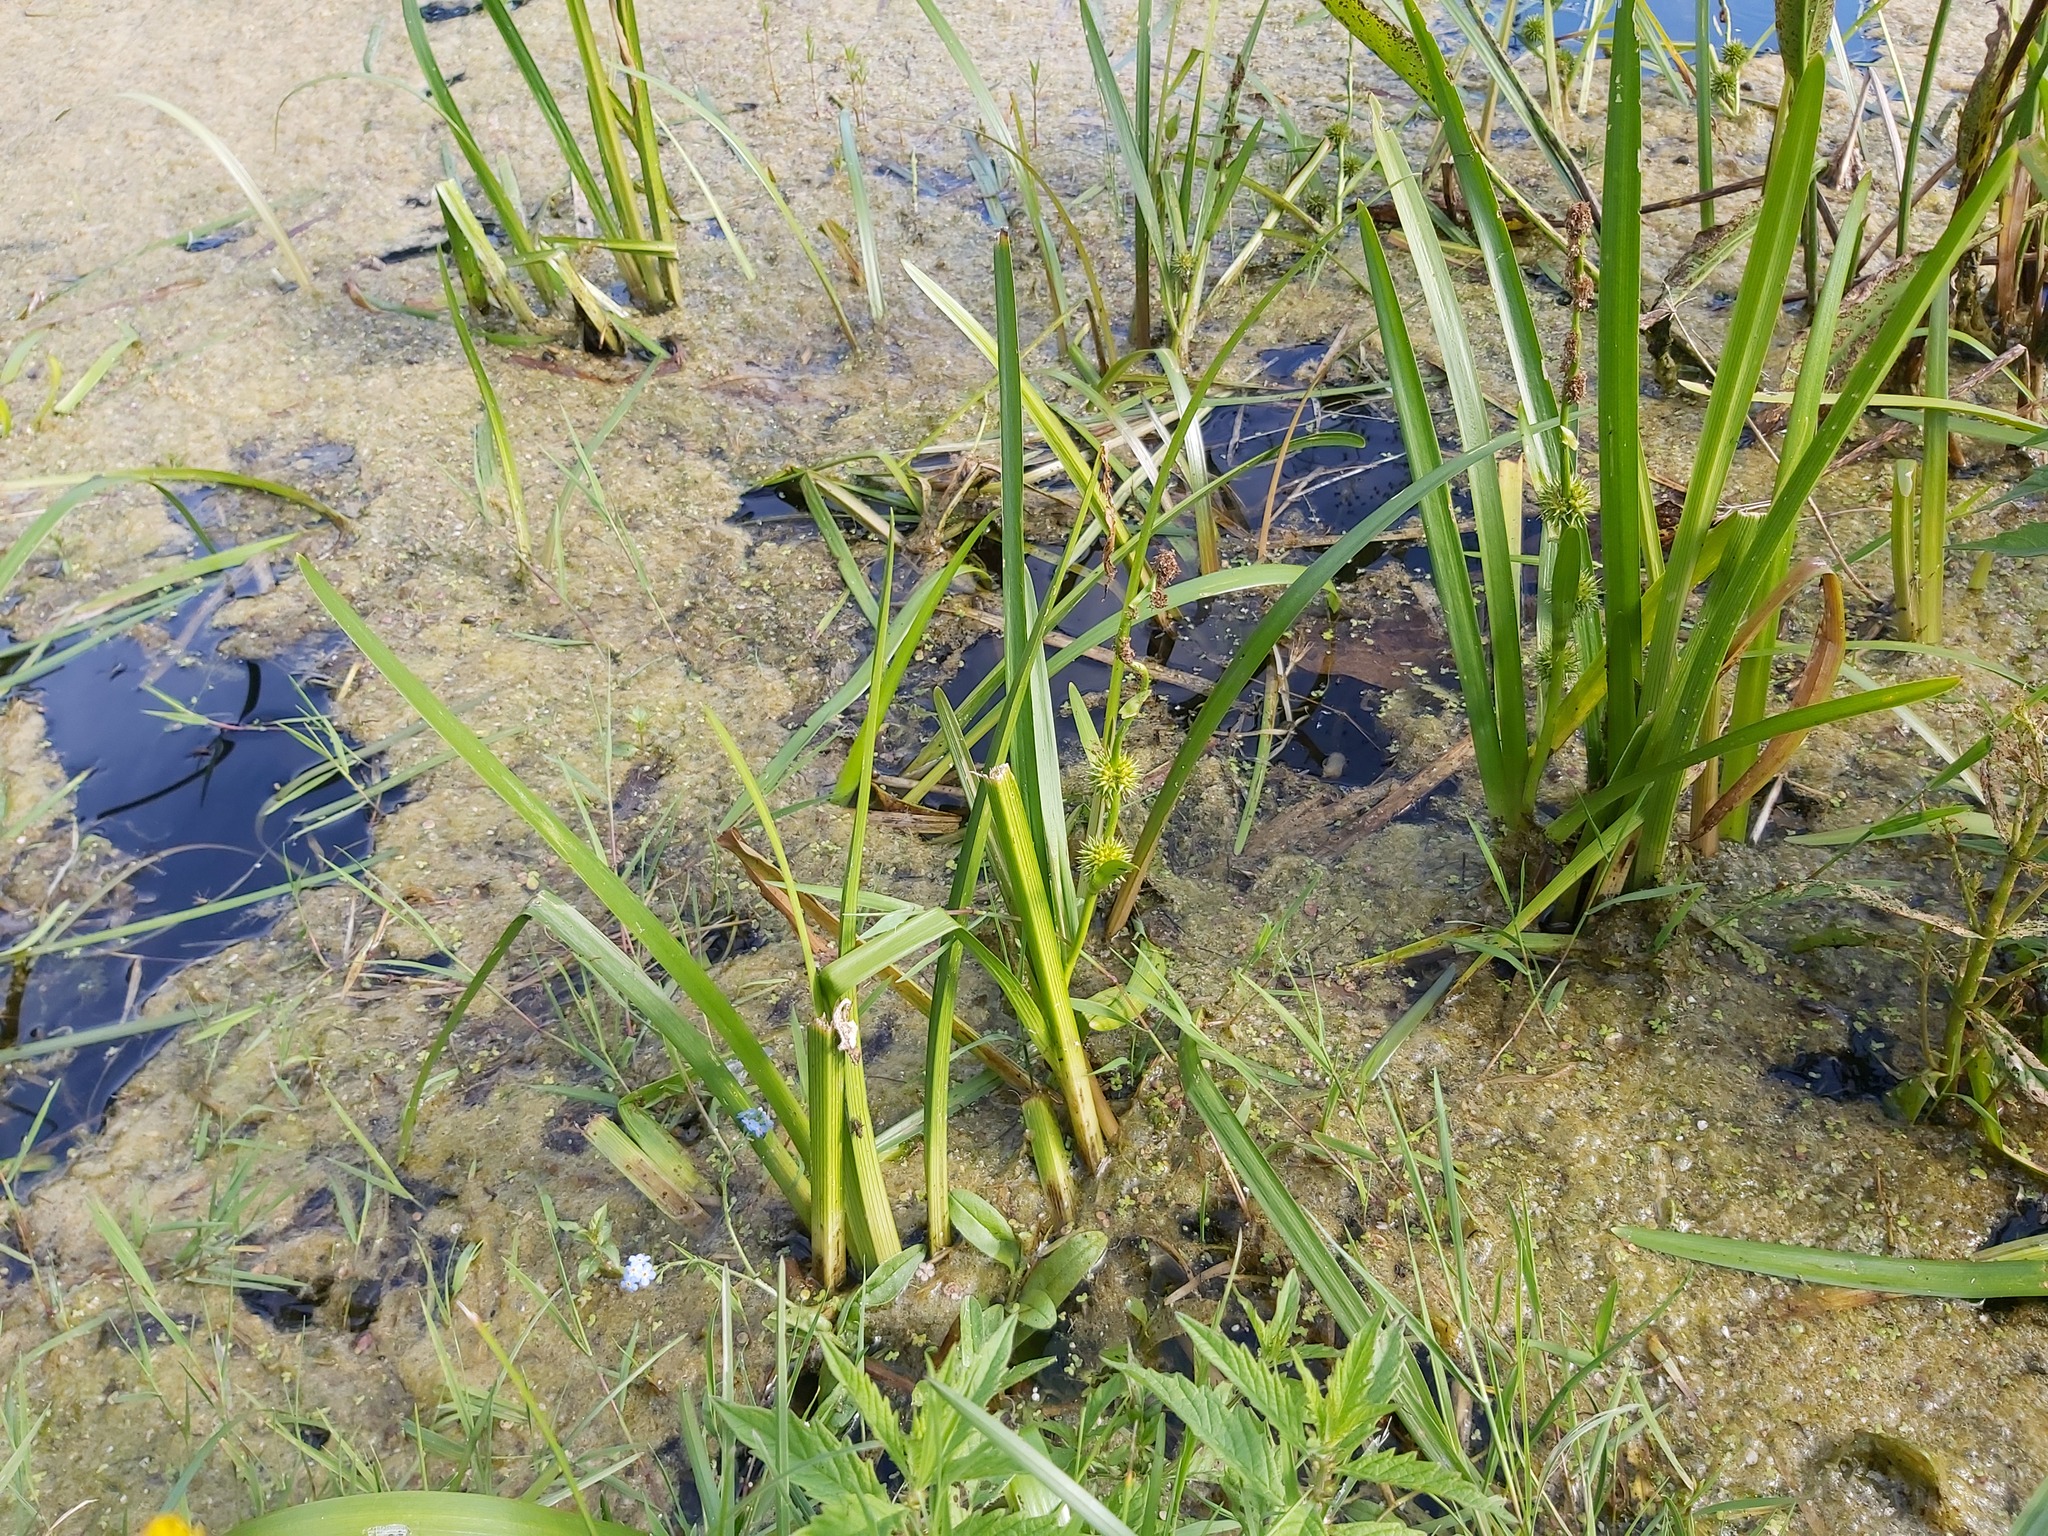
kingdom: Plantae
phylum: Tracheophyta
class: Liliopsida
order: Poales
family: Typhaceae
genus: Sparganium
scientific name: Sparganium emersum
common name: Unbranched bur-reed
